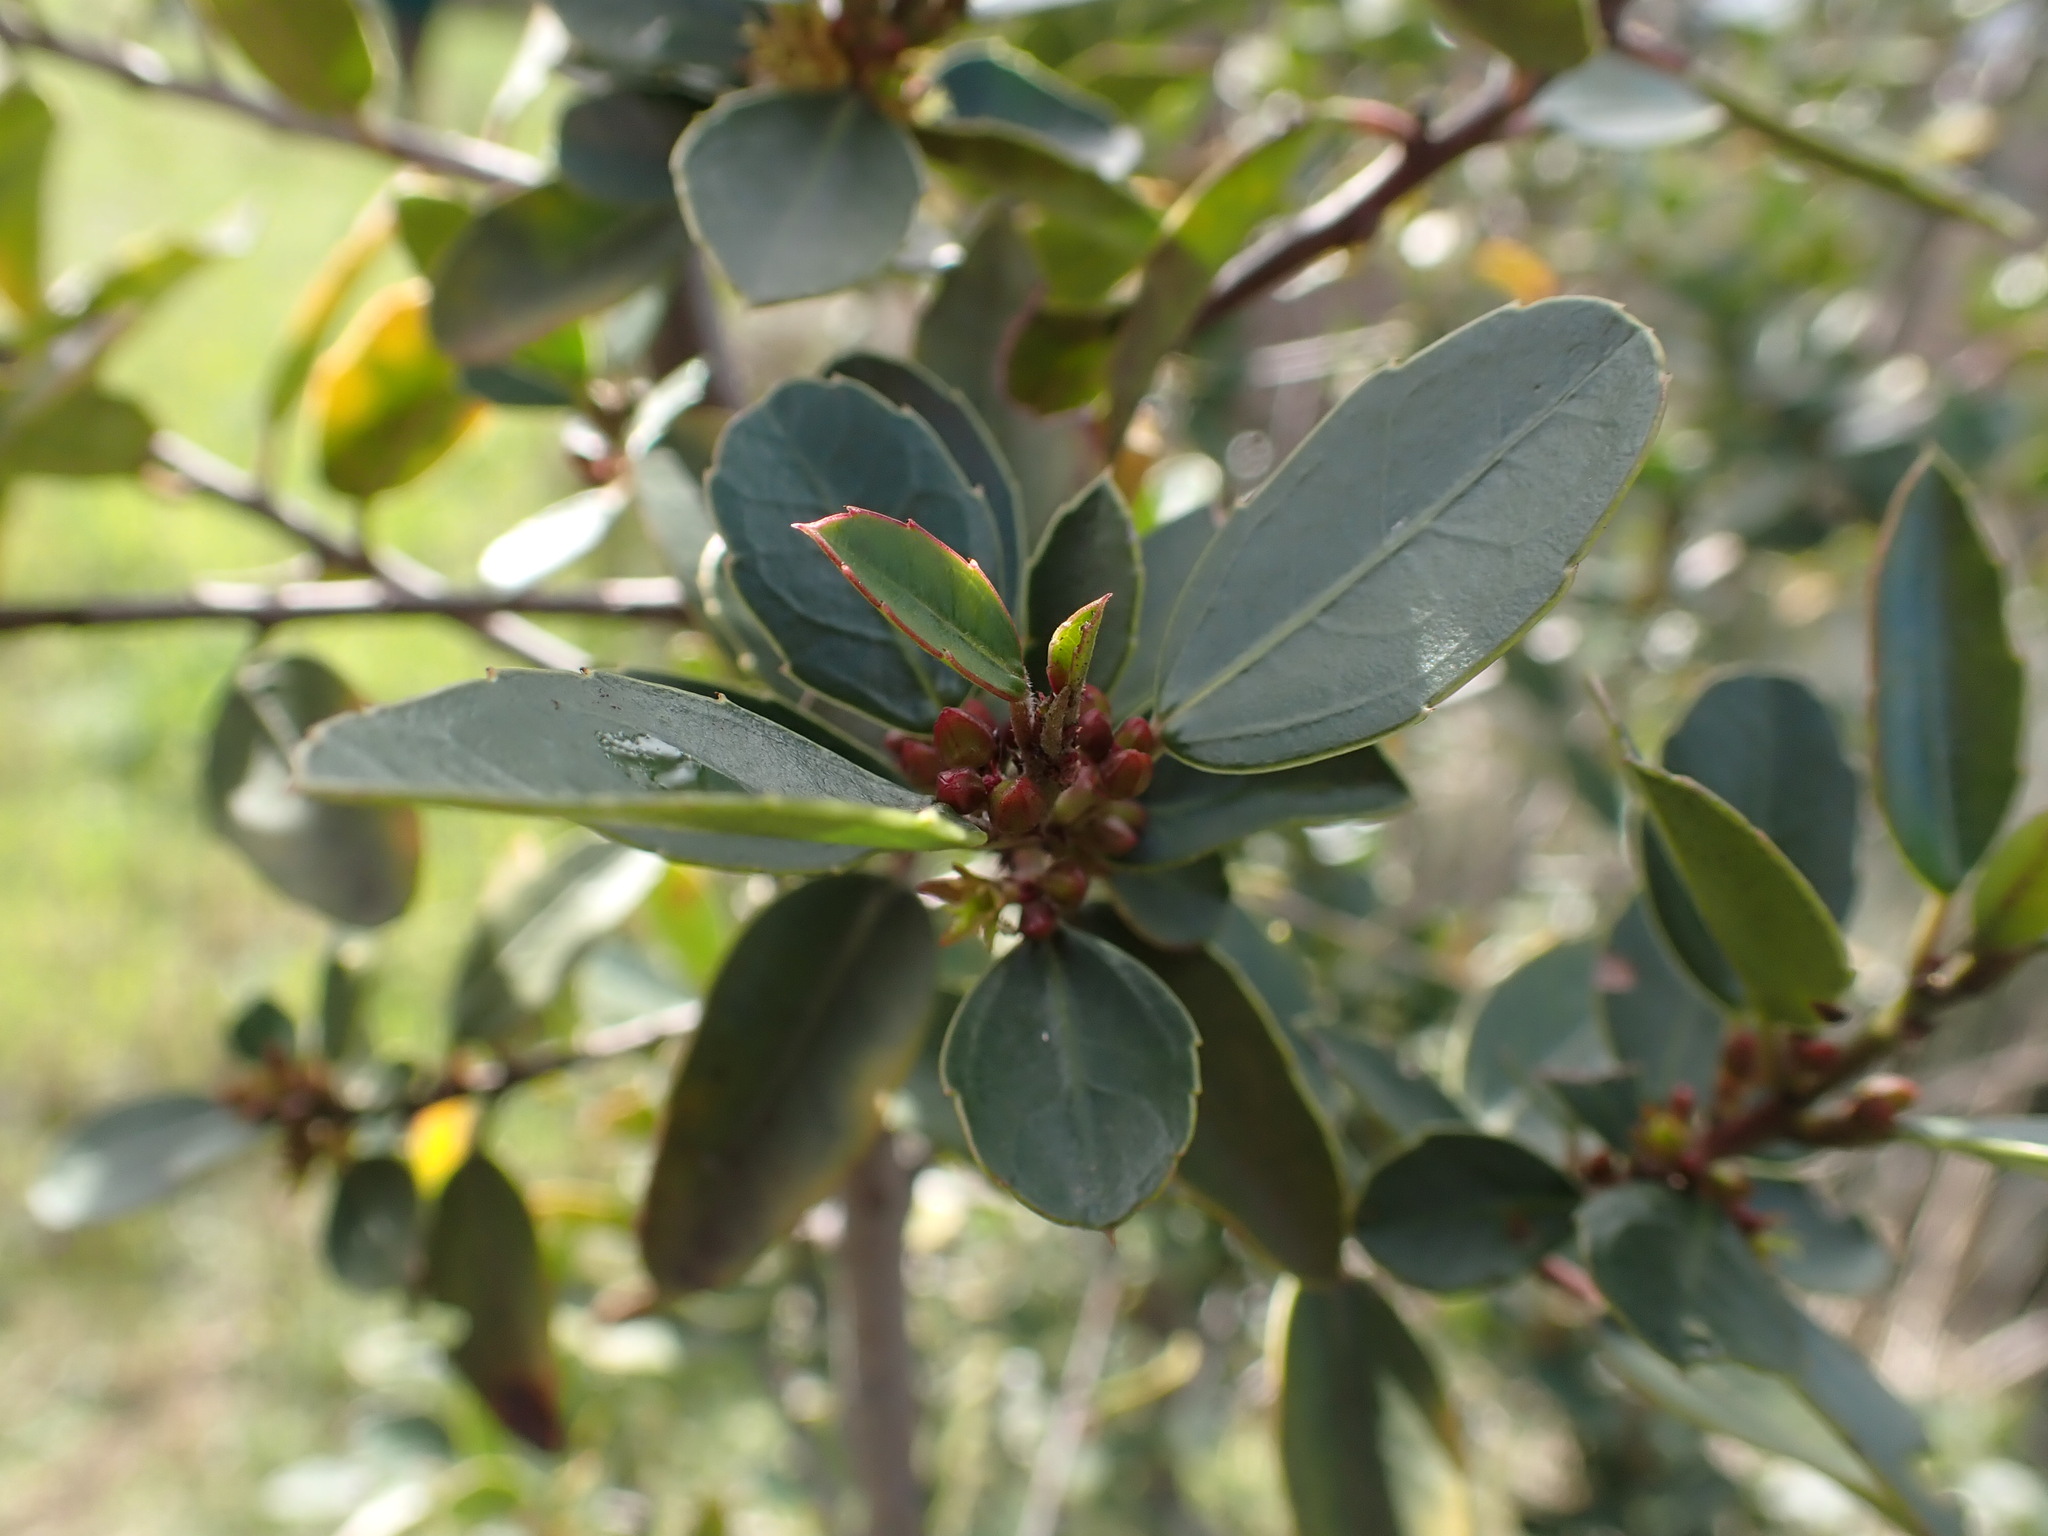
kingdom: Plantae
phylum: Tracheophyta
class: Magnoliopsida
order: Rosales
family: Rhamnaceae
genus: Rhamnus
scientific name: Rhamnus alaternus
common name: Mediterranean buckthorn
